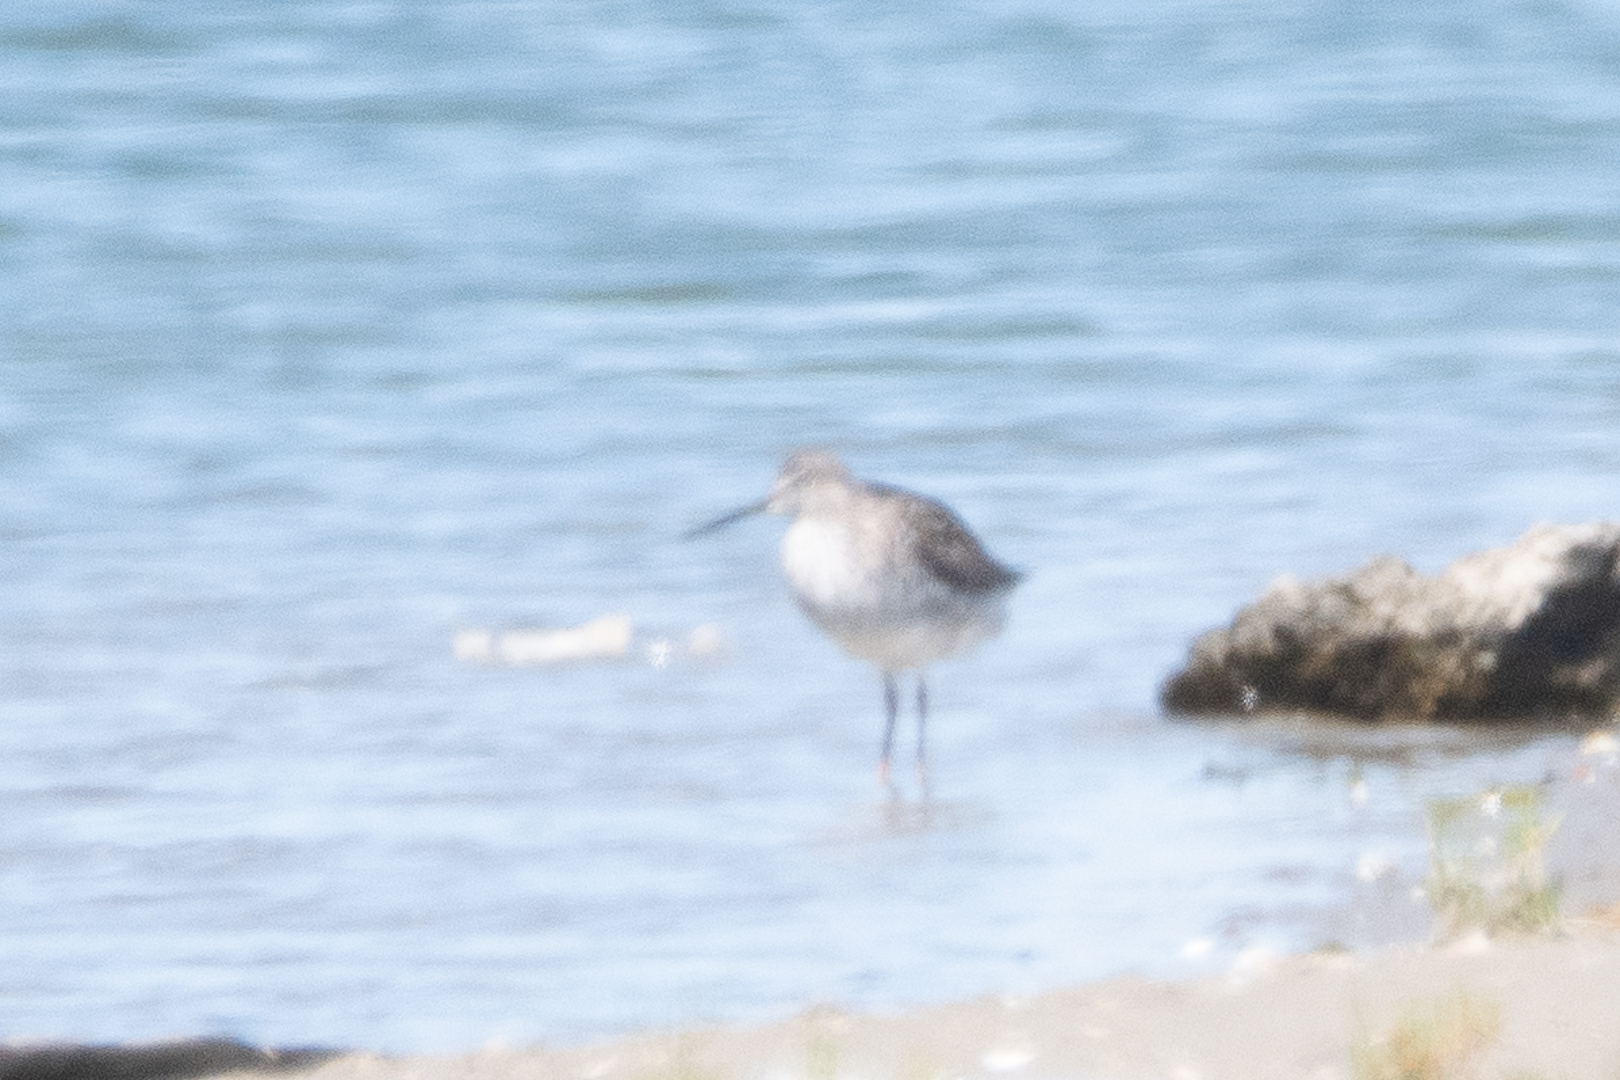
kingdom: Animalia
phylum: Chordata
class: Aves
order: Charadriiformes
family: Scolopacidae
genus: Tringa
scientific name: Tringa melanoleuca
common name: Greater yellowlegs
